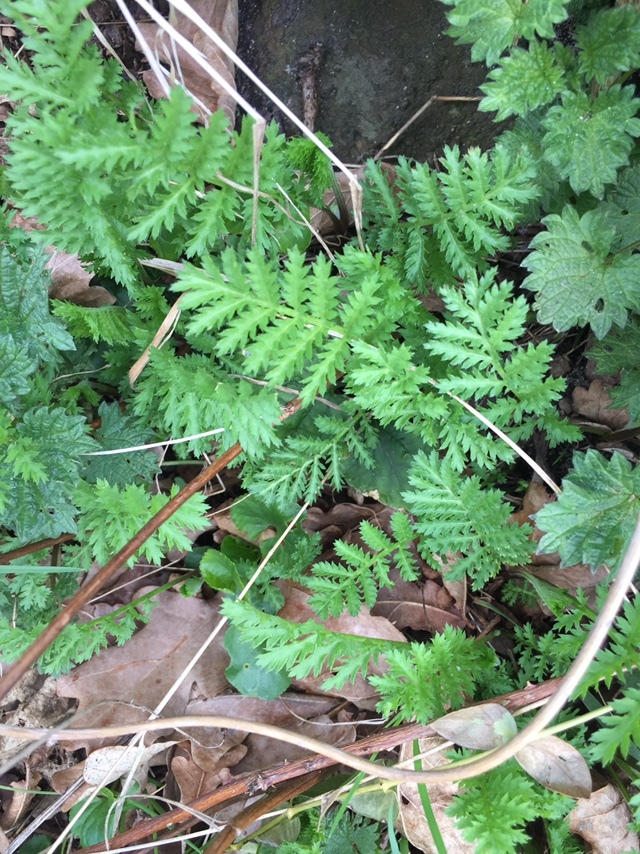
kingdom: Plantae
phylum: Tracheophyta
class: Magnoliopsida
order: Asterales
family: Asteraceae
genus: Tanacetum
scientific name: Tanacetum vulgare
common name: Common tansy
